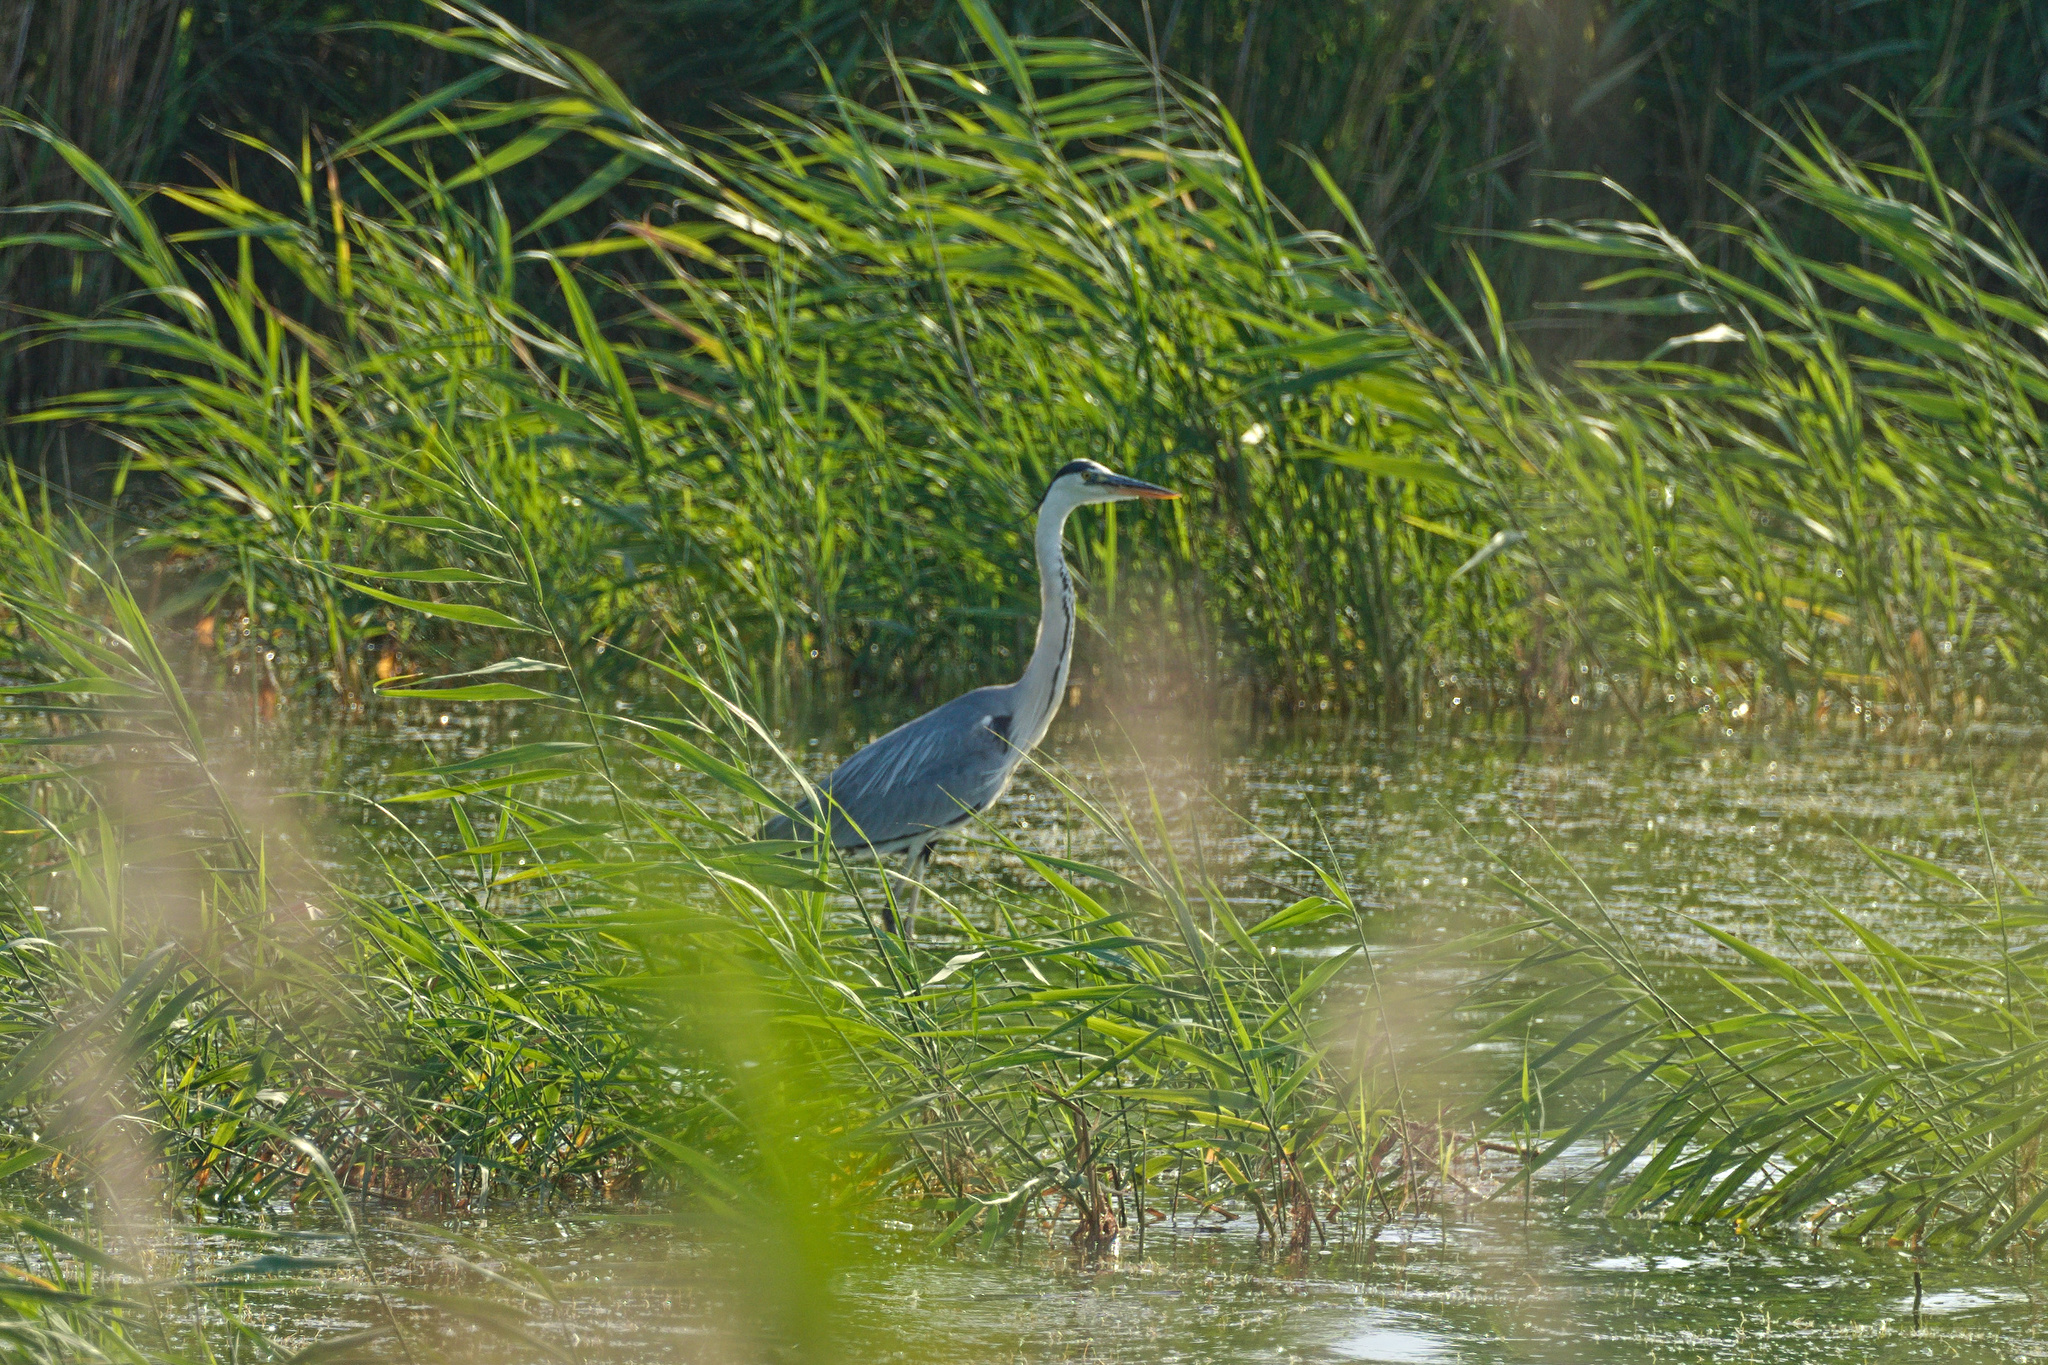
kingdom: Animalia
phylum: Chordata
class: Aves
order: Pelecaniformes
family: Ardeidae
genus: Ardea
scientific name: Ardea cinerea
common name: Grey heron
